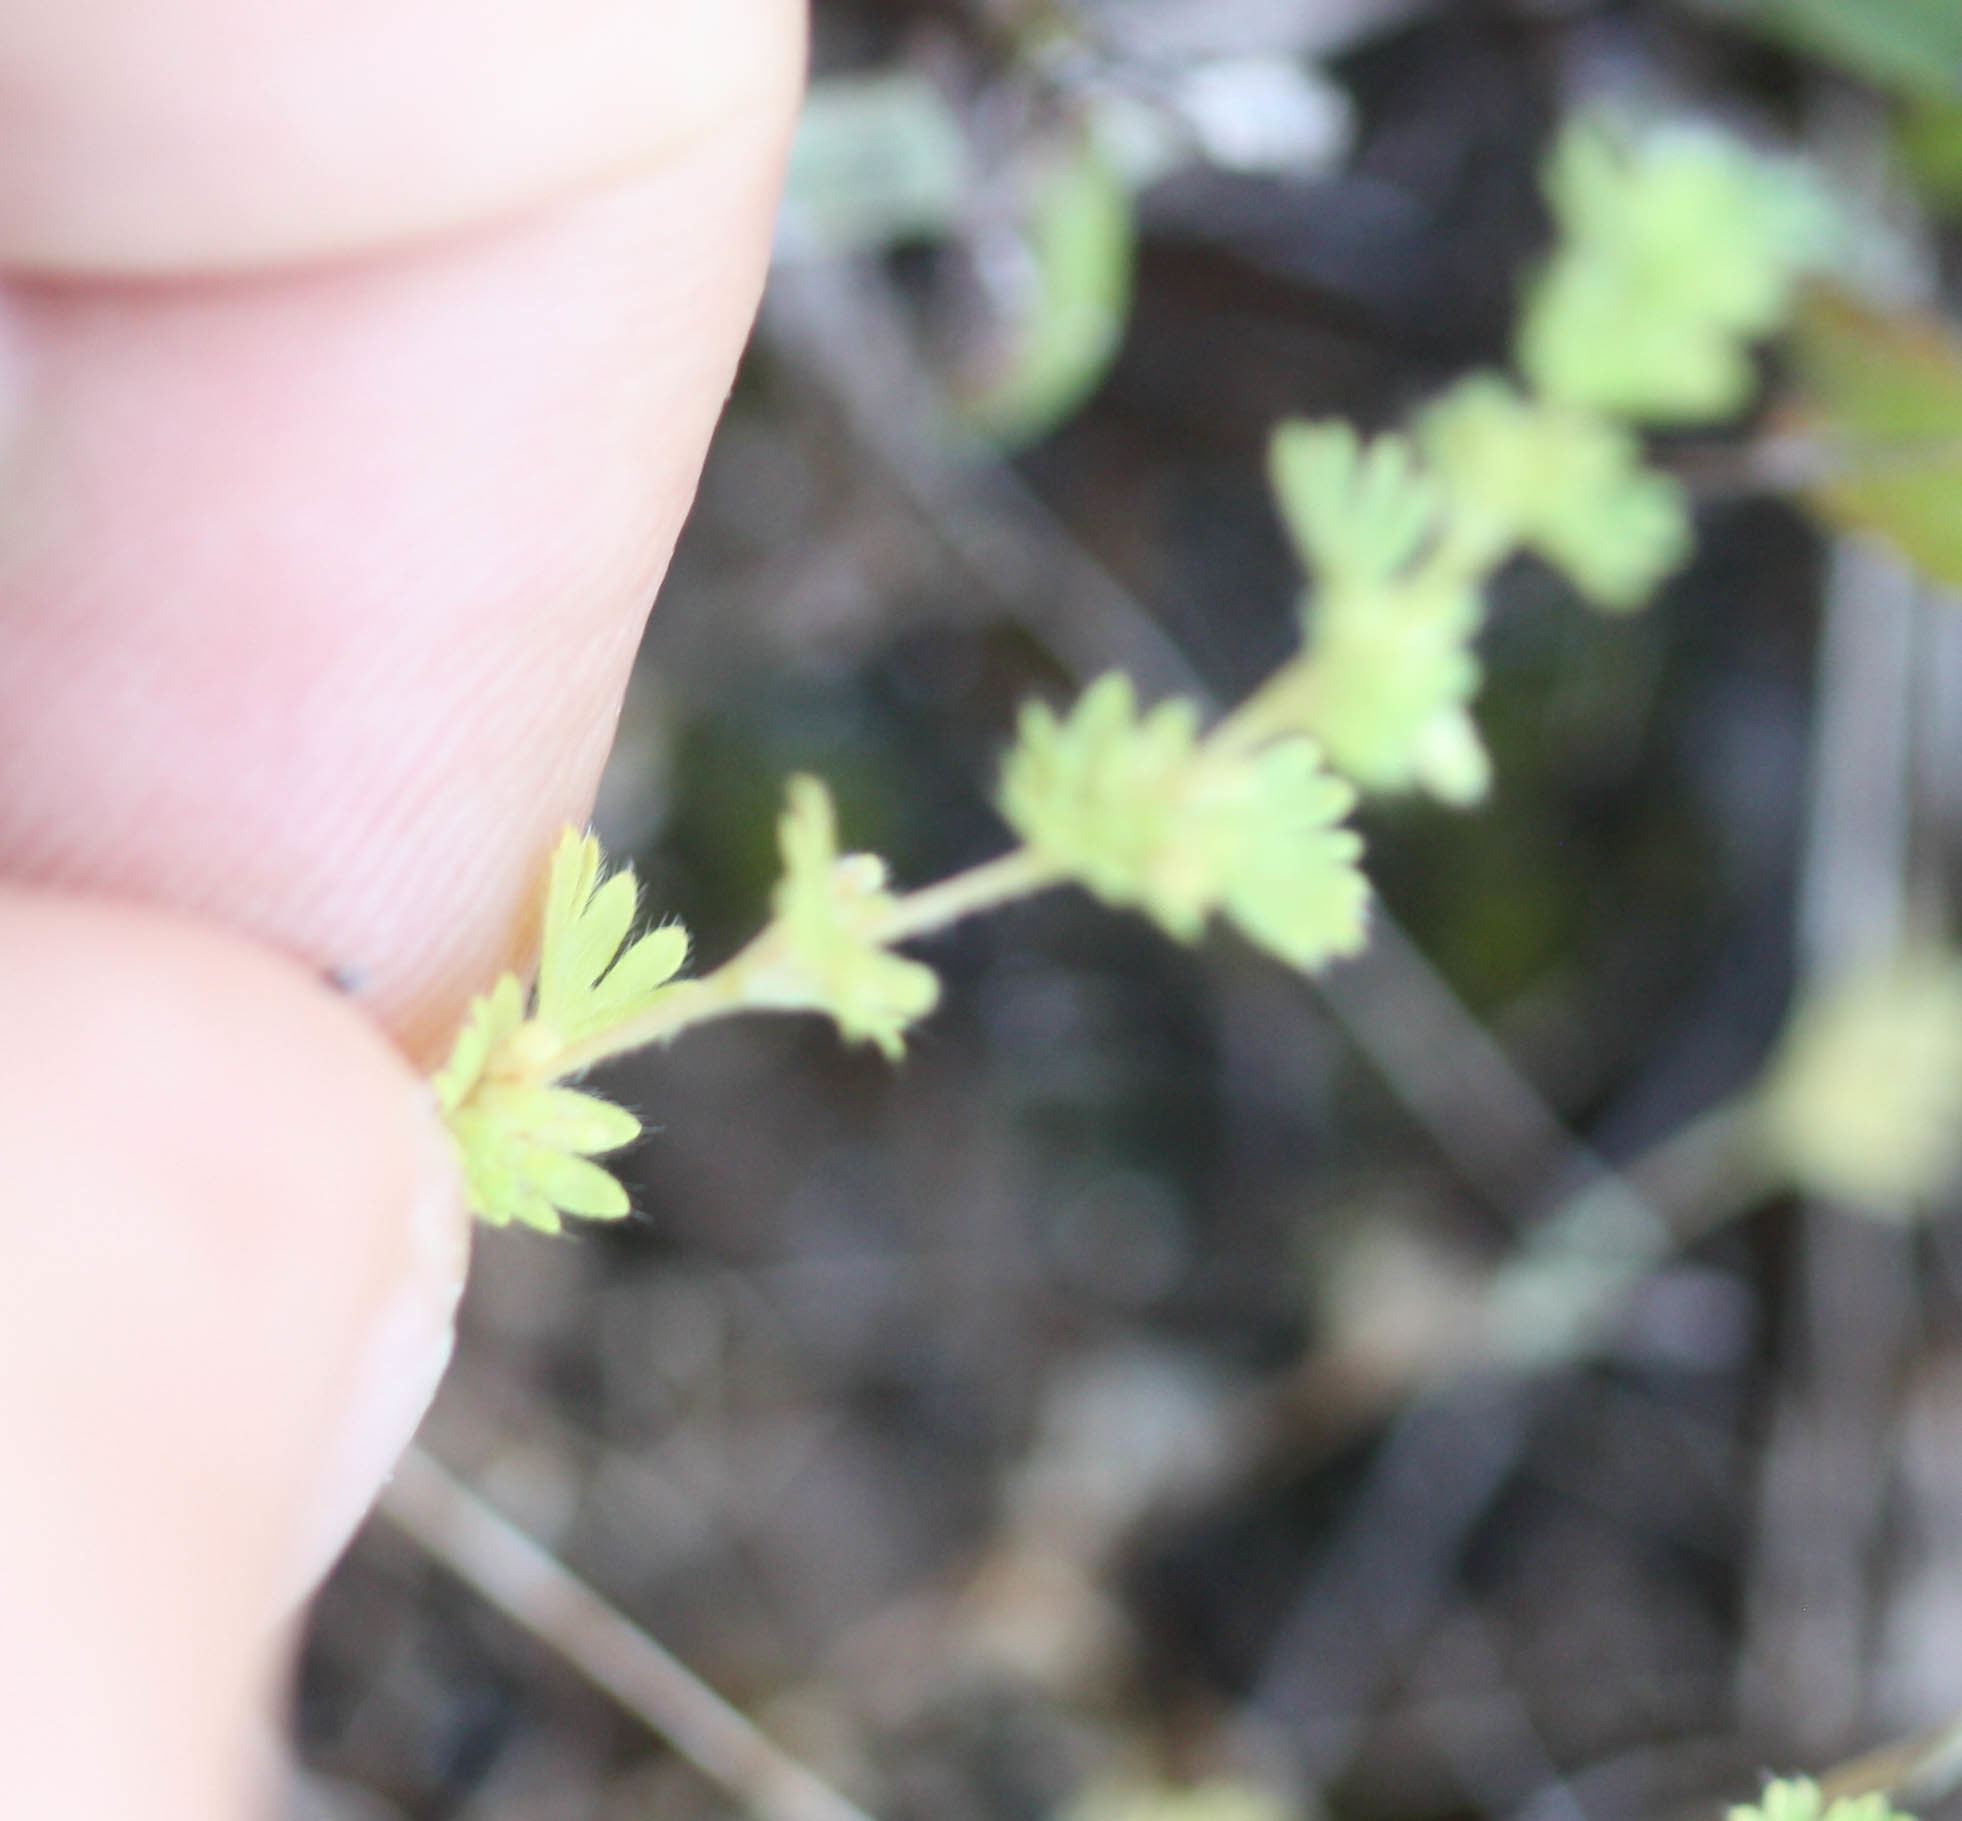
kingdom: Plantae
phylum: Tracheophyta
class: Magnoliopsida
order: Rosales
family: Rosaceae
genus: Aphanes
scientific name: Aphanes arvensis
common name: Parsley-piert
